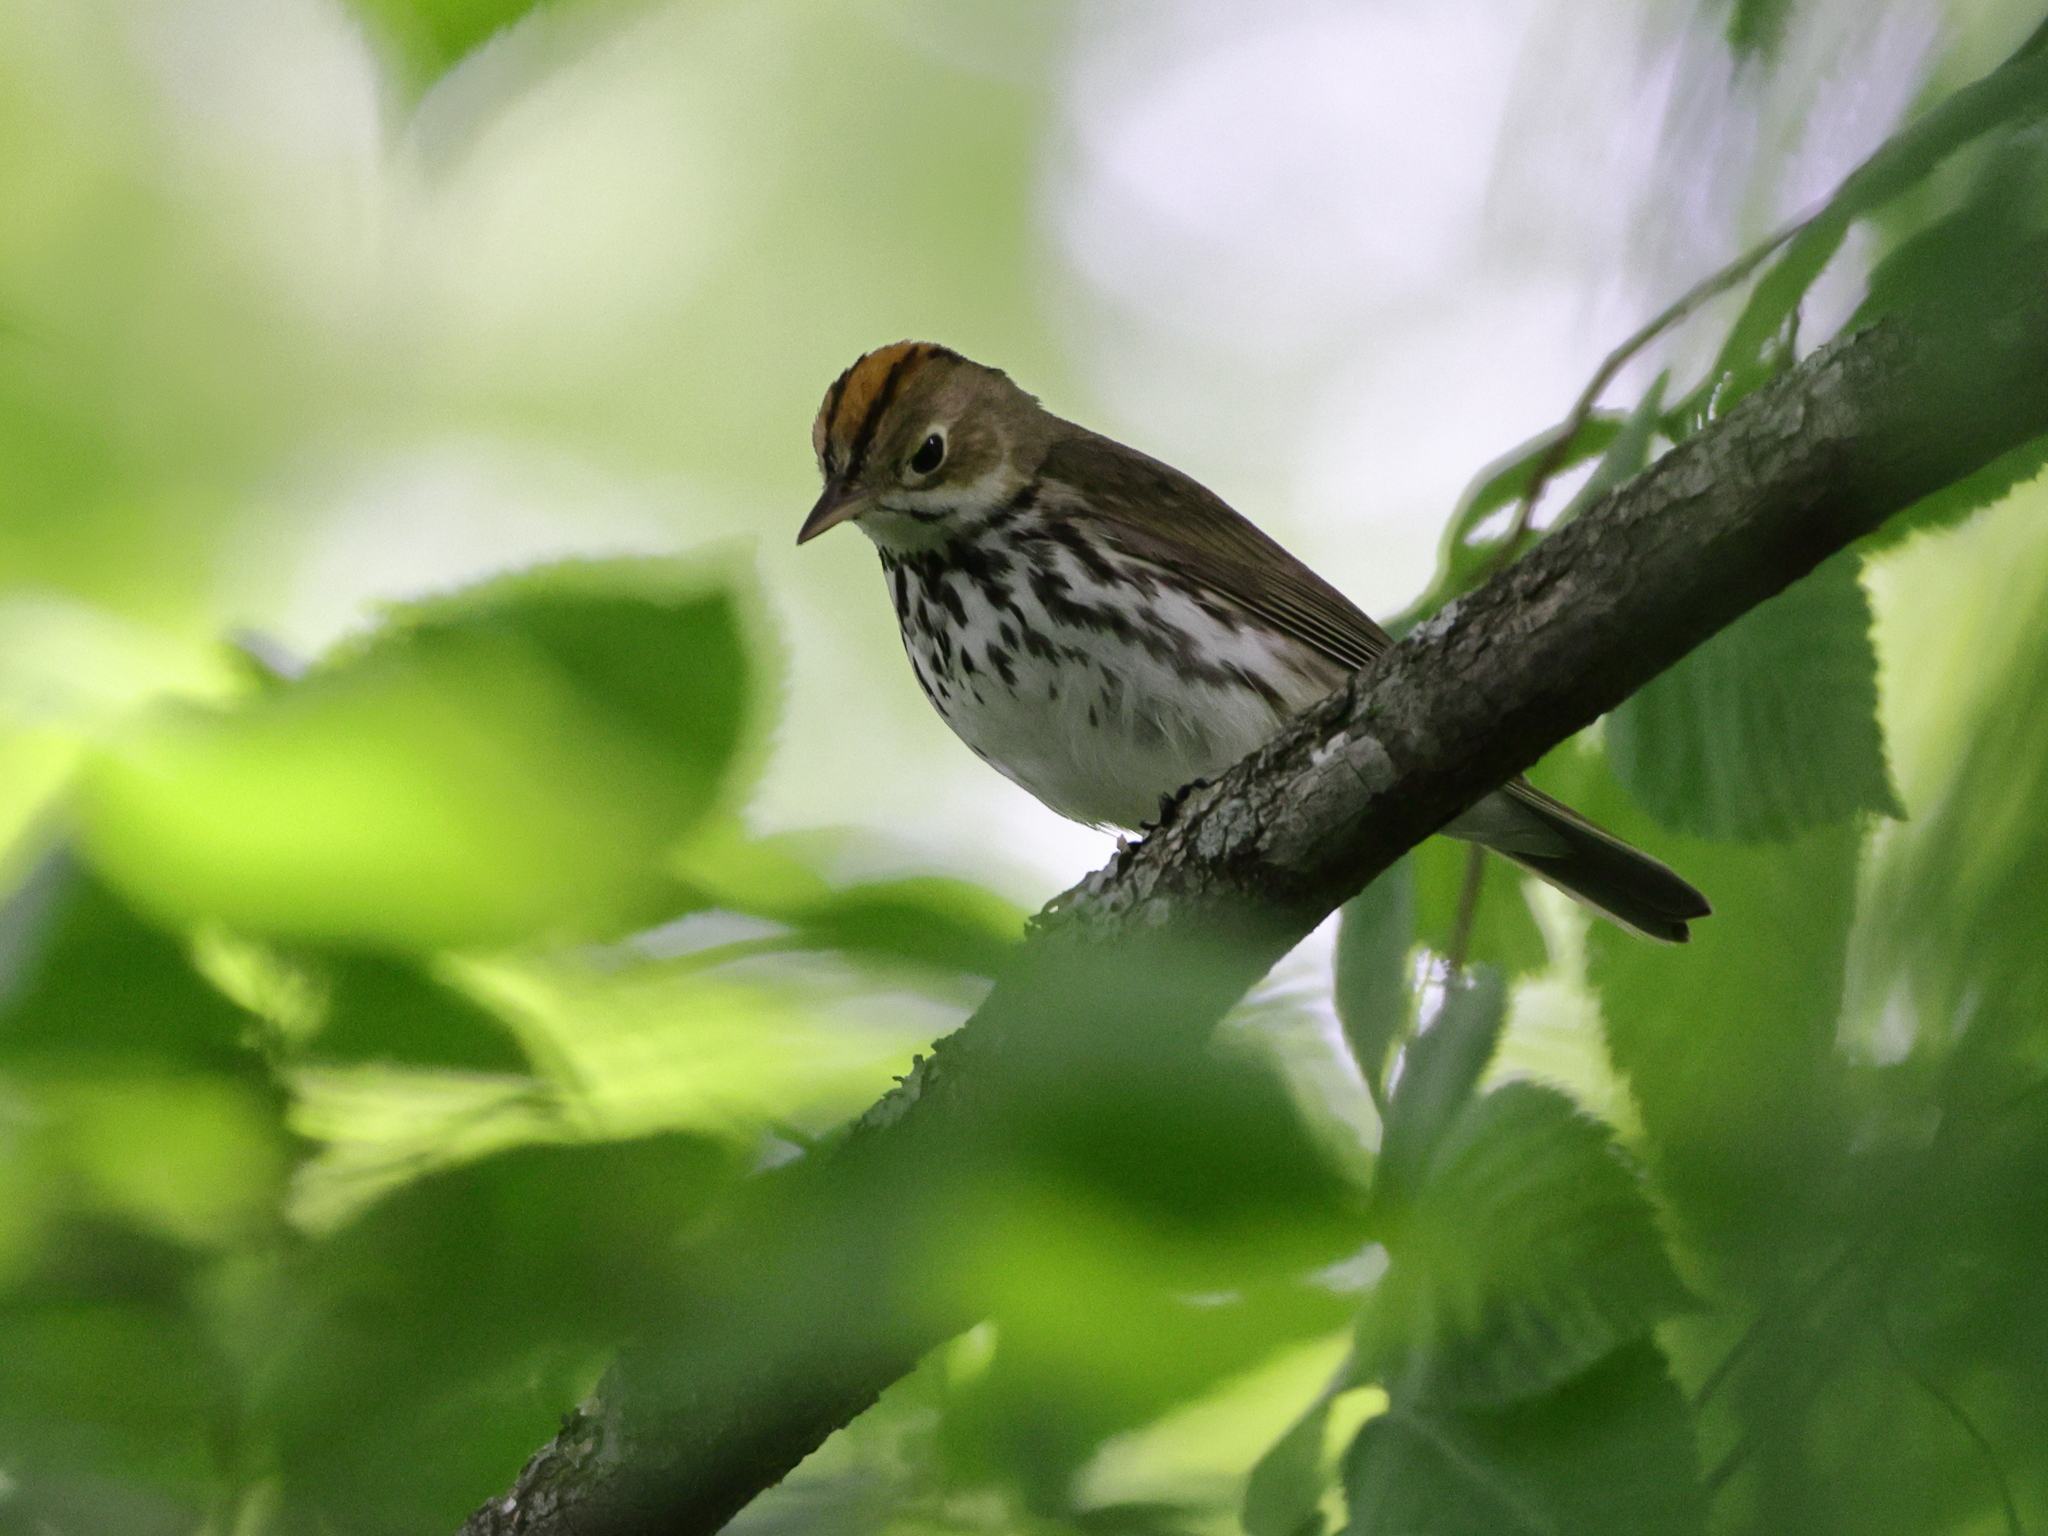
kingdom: Animalia
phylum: Chordata
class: Aves
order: Passeriformes
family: Parulidae
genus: Seiurus
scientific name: Seiurus aurocapilla
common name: Ovenbird
